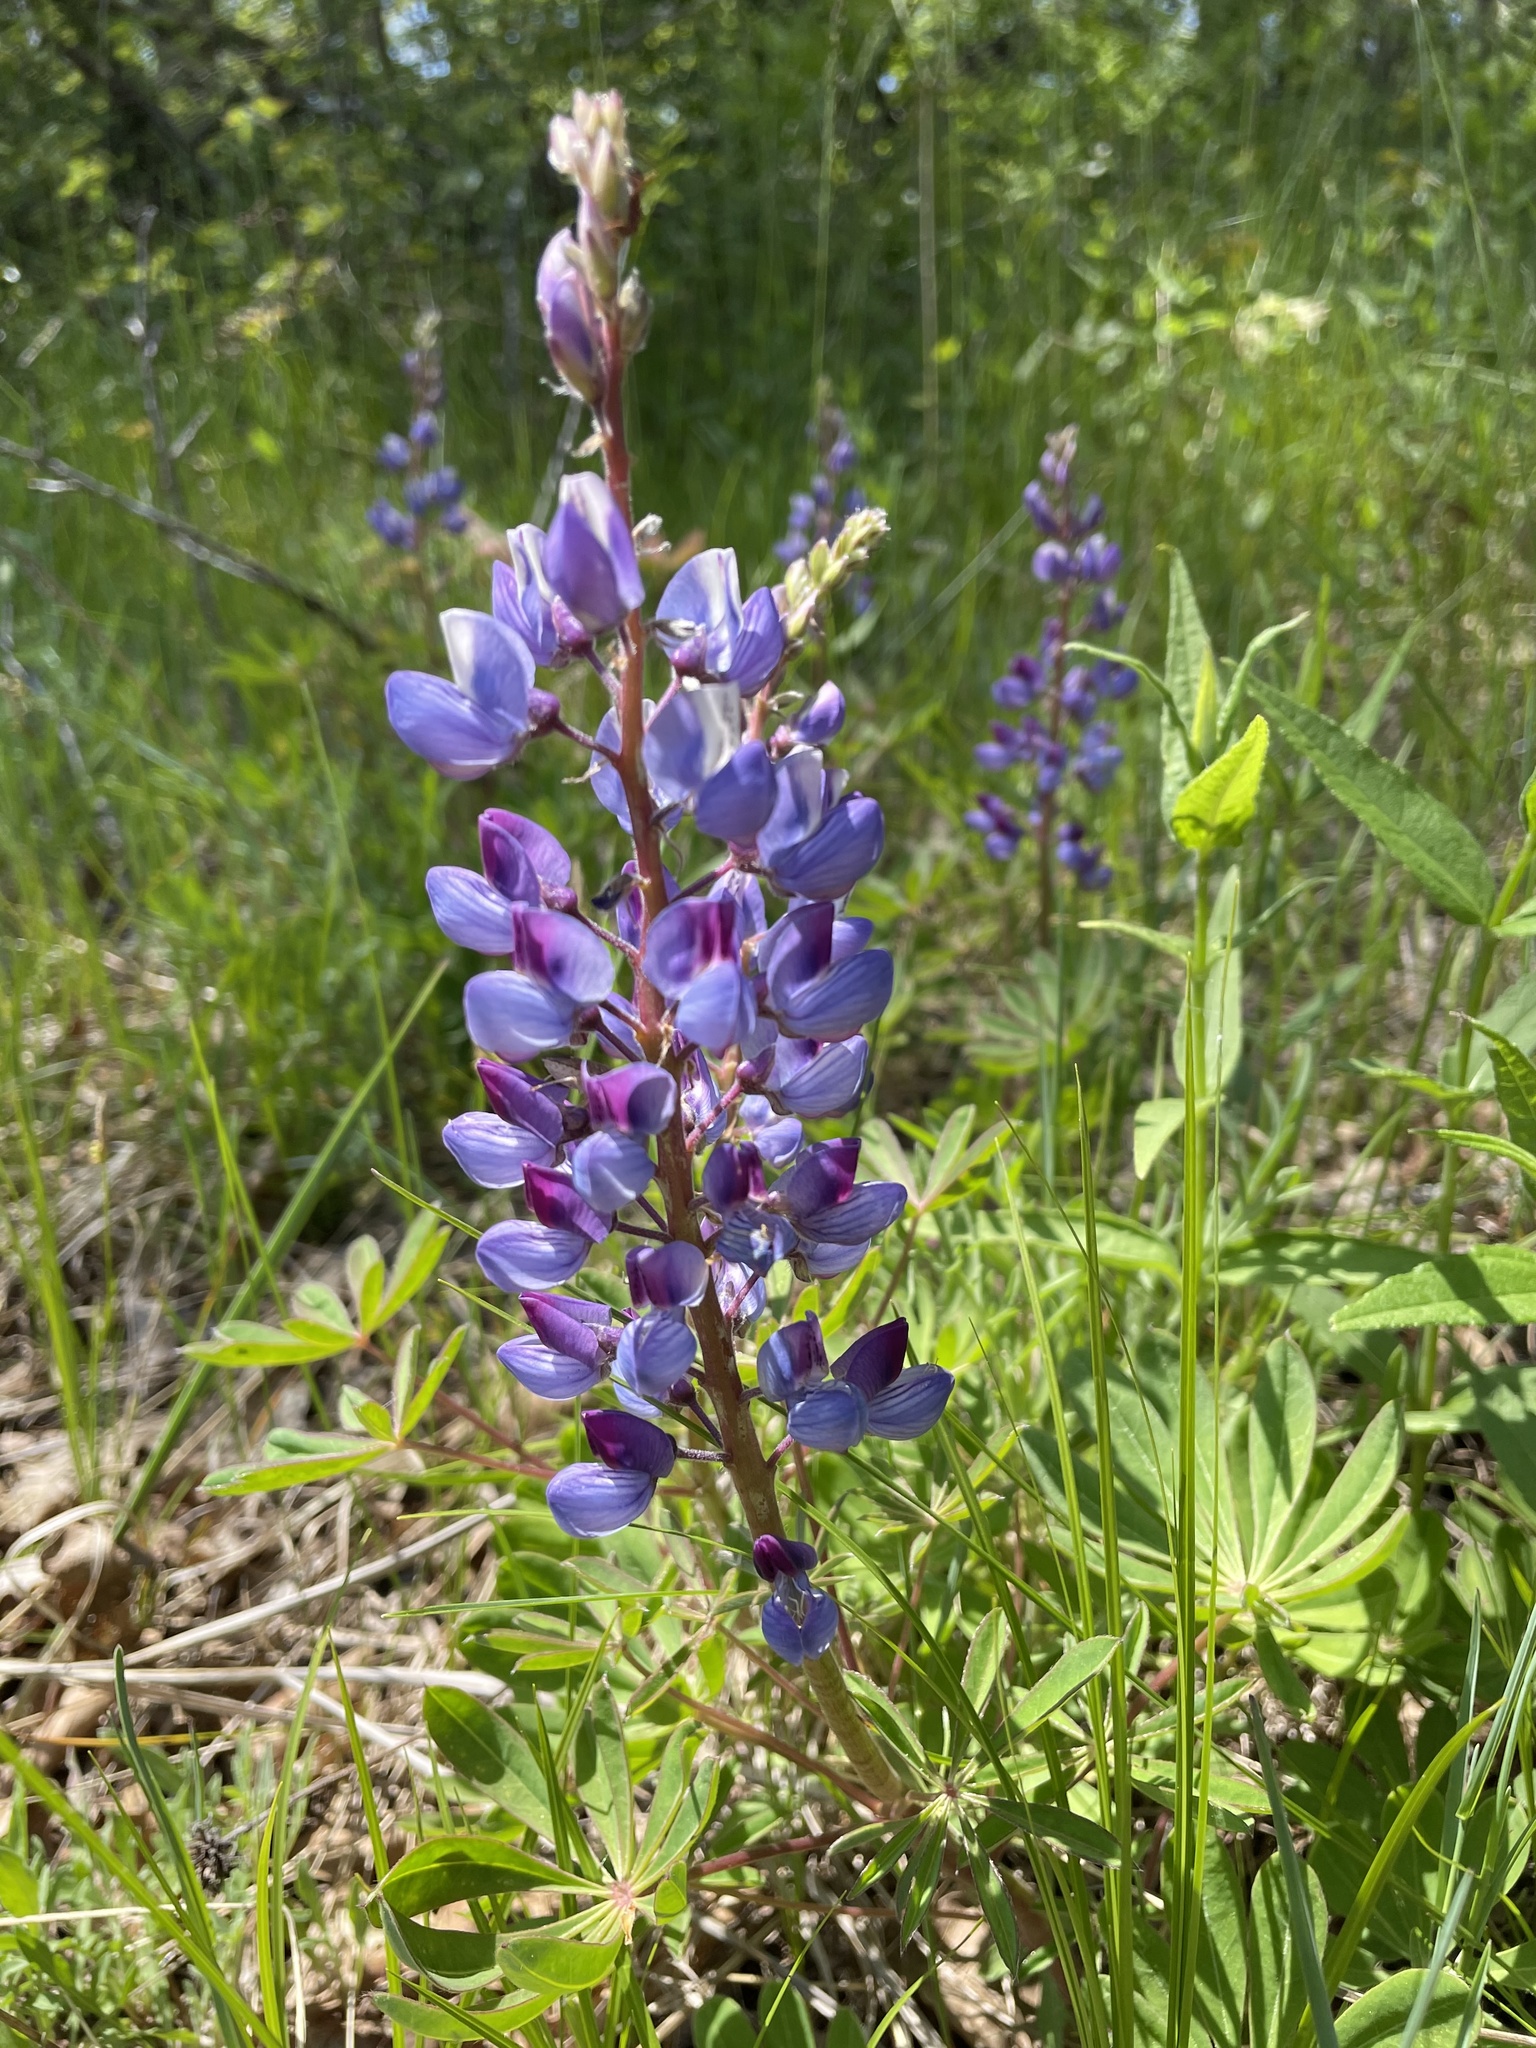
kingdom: Plantae
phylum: Tracheophyta
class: Magnoliopsida
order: Fabales
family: Fabaceae
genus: Lupinus
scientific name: Lupinus perennis
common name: Sundial lupine
